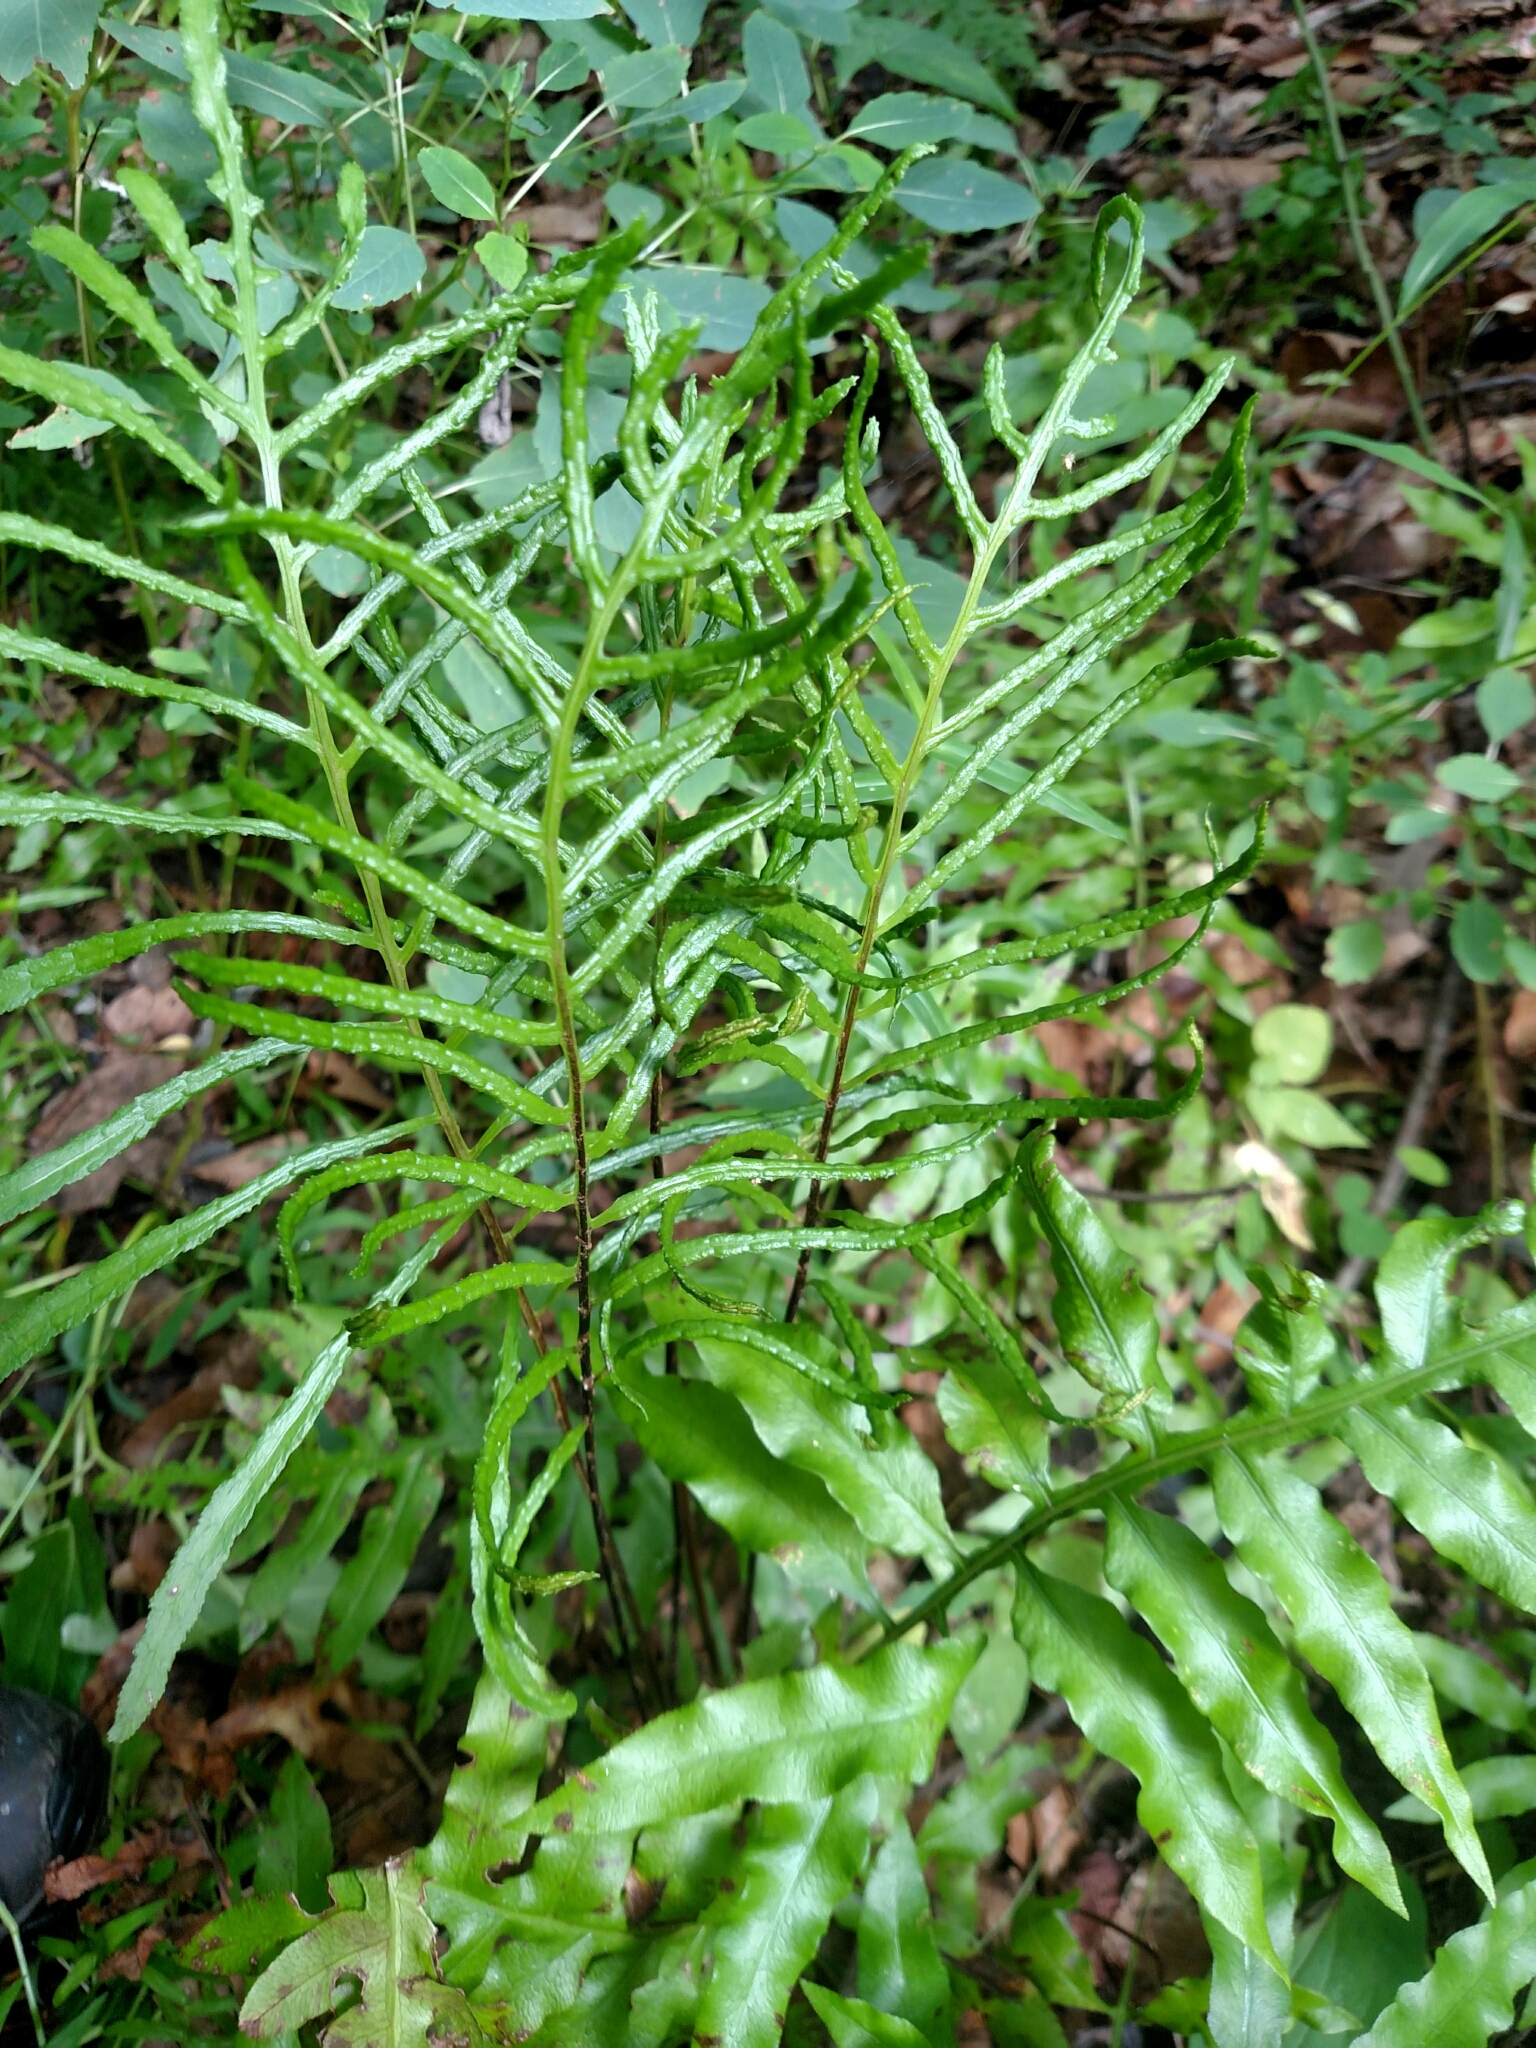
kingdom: Plantae
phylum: Tracheophyta
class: Polypodiopsida
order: Polypodiales
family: Blechnaceae
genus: Lorinseria
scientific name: Lorinseria areolata
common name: Dwarf chain fern
